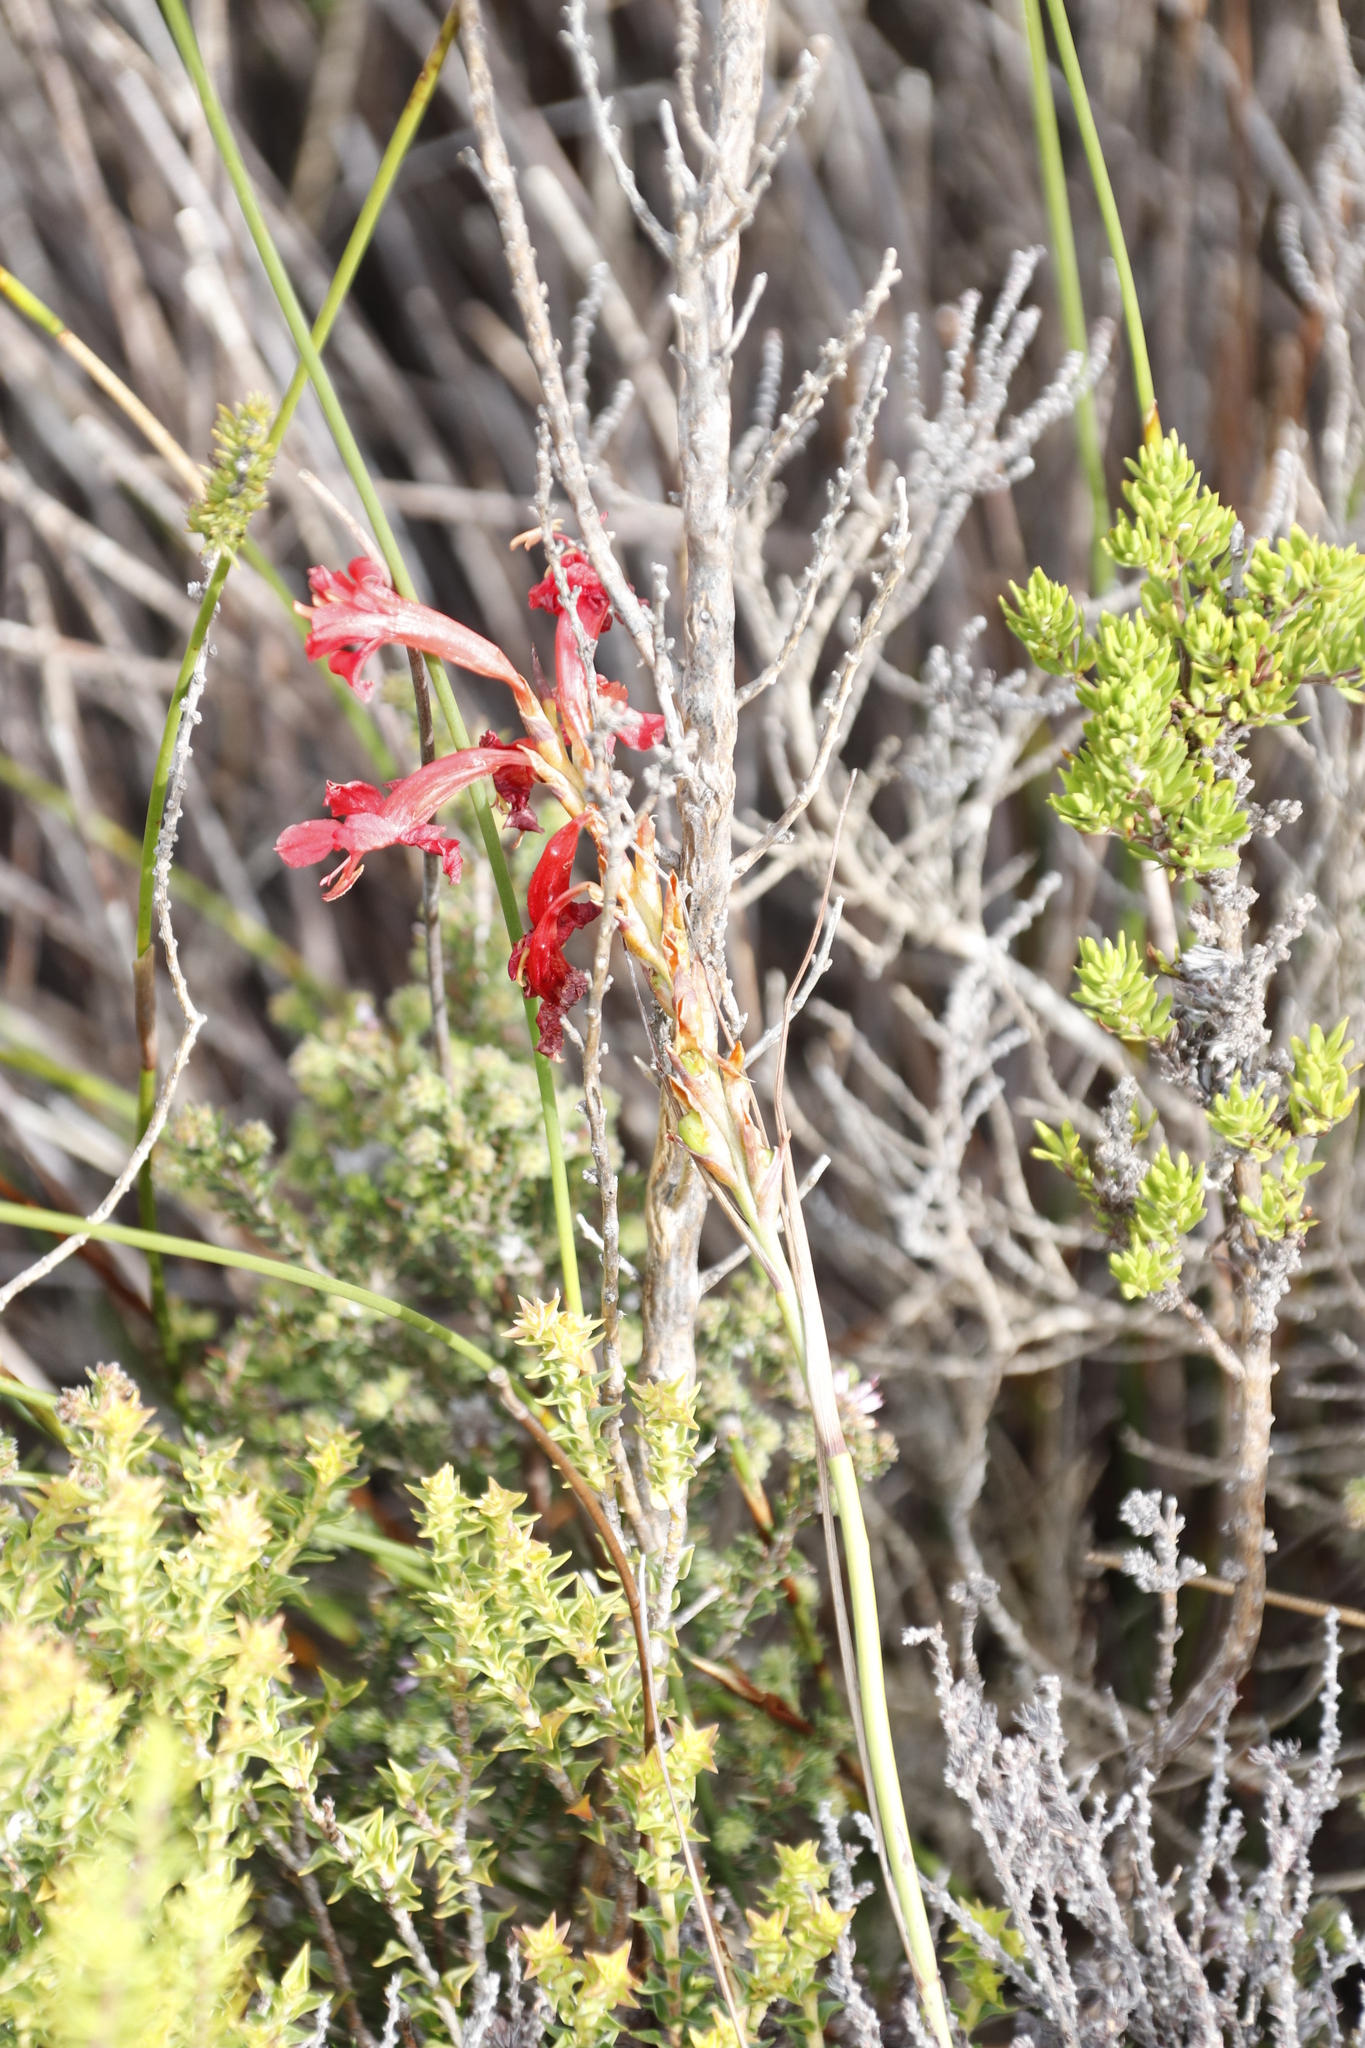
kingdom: Plantae
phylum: Tracheophyta
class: Liliopsida
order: Asparagales
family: Iridaceae
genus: Tritoniopsis
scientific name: Tritoniopsis triticea
